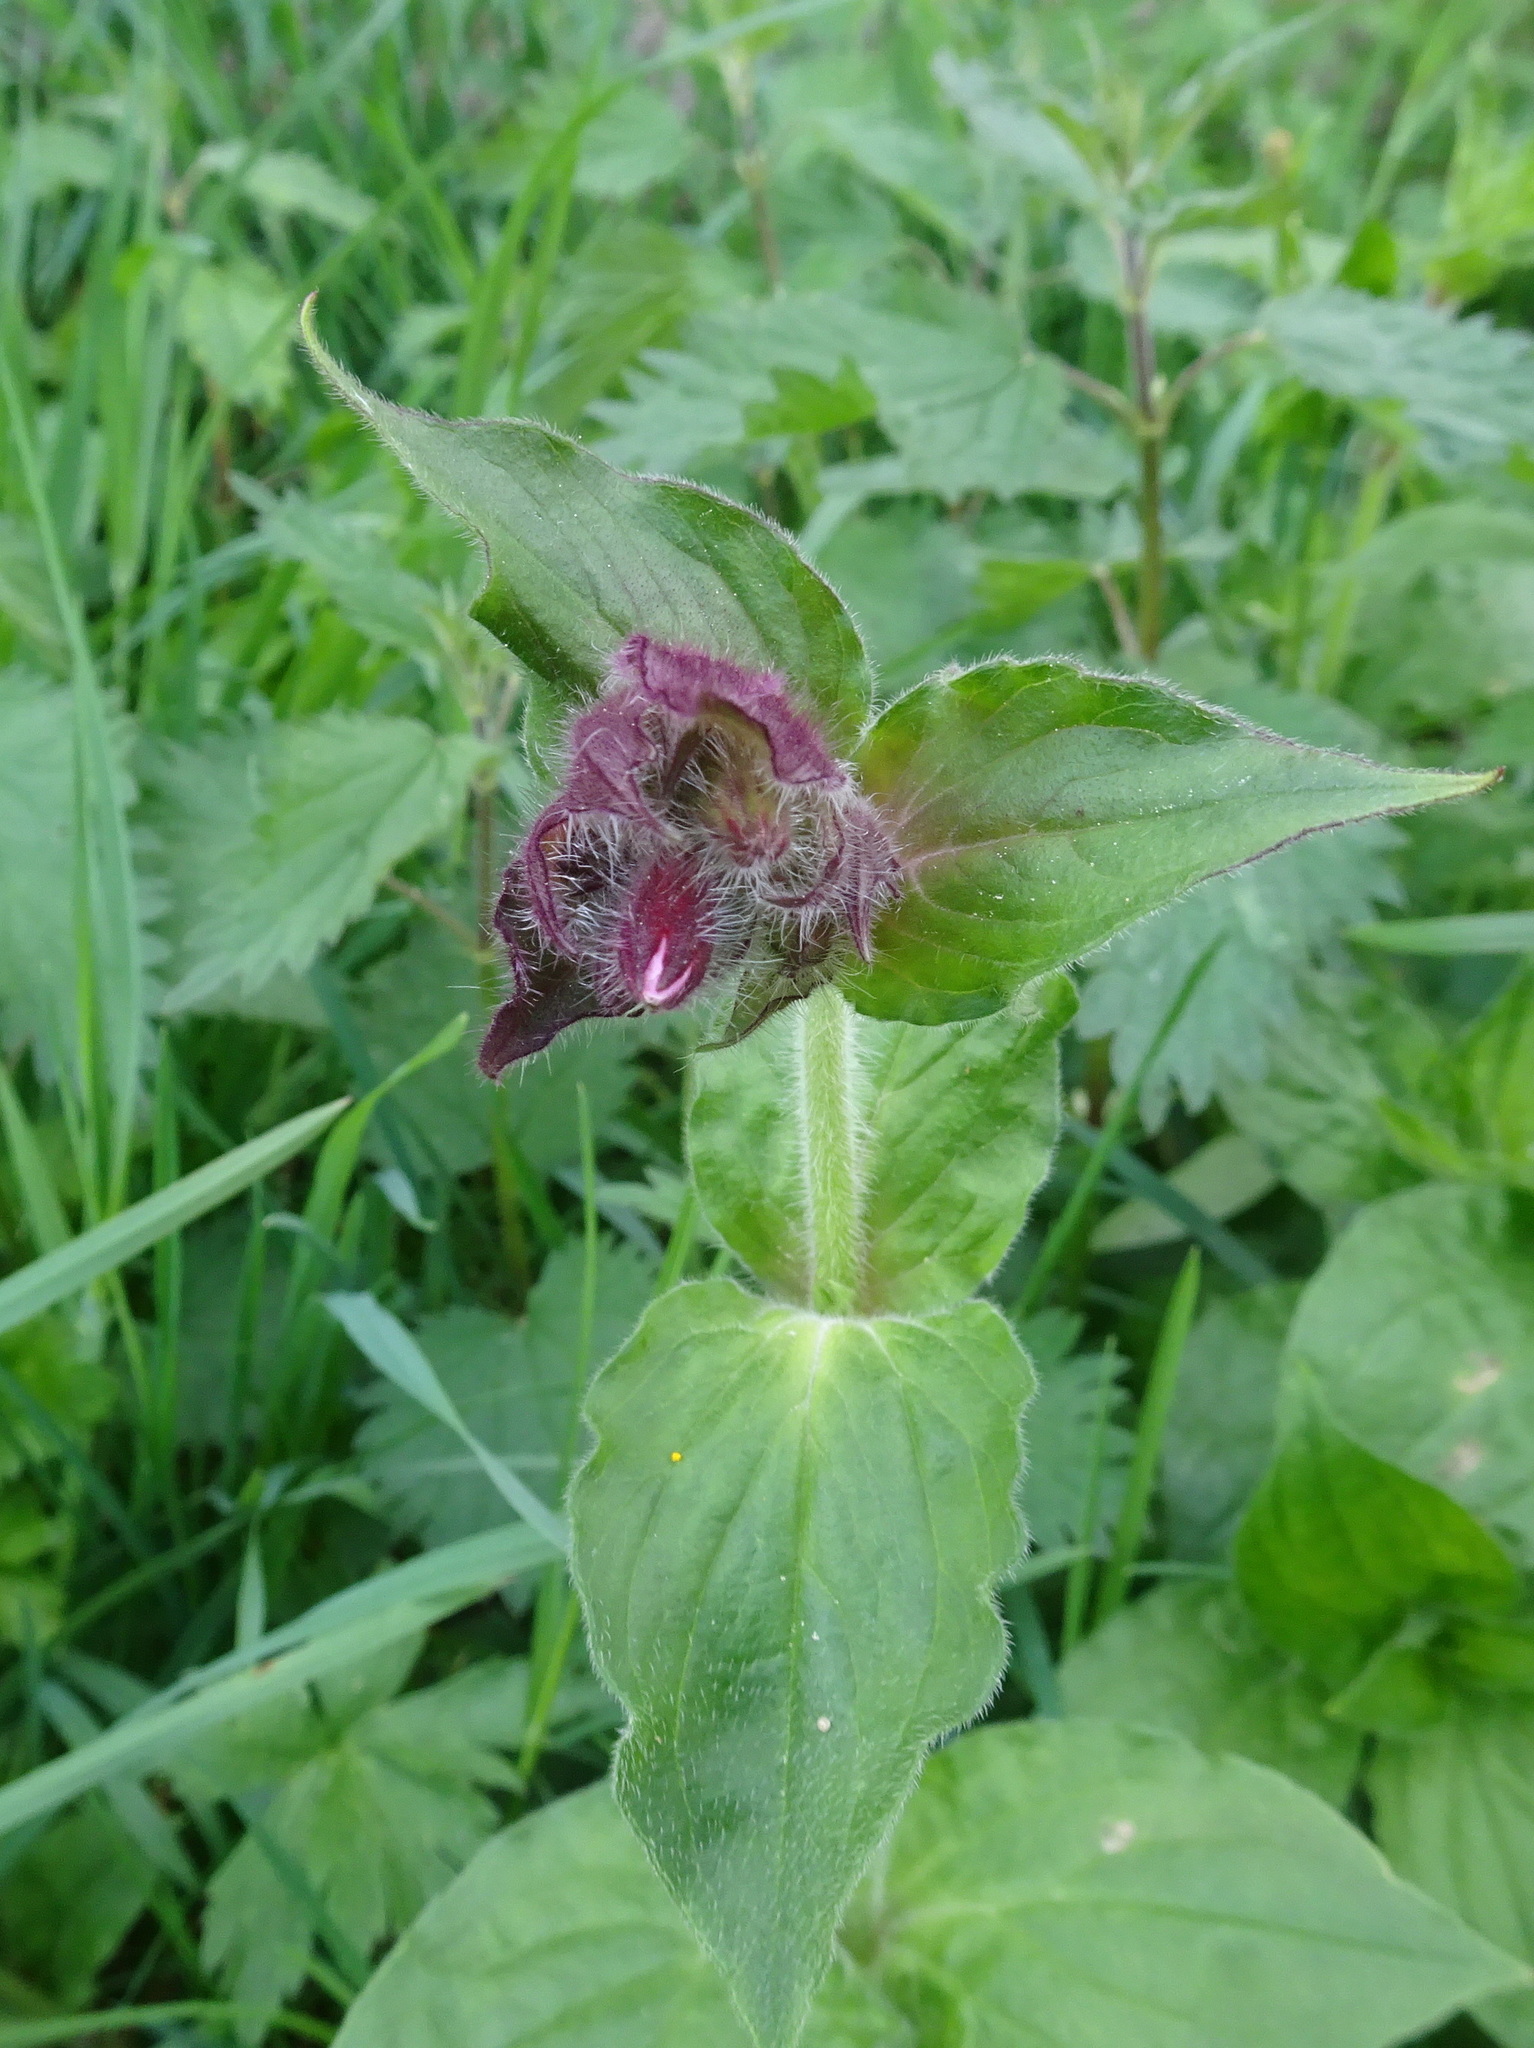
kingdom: Plantae
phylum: Tracheophyta
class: Magnoliopsida
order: Caryophyllales
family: Caryophyllaceae
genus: Silene
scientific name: Silene dioica
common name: Red campion
